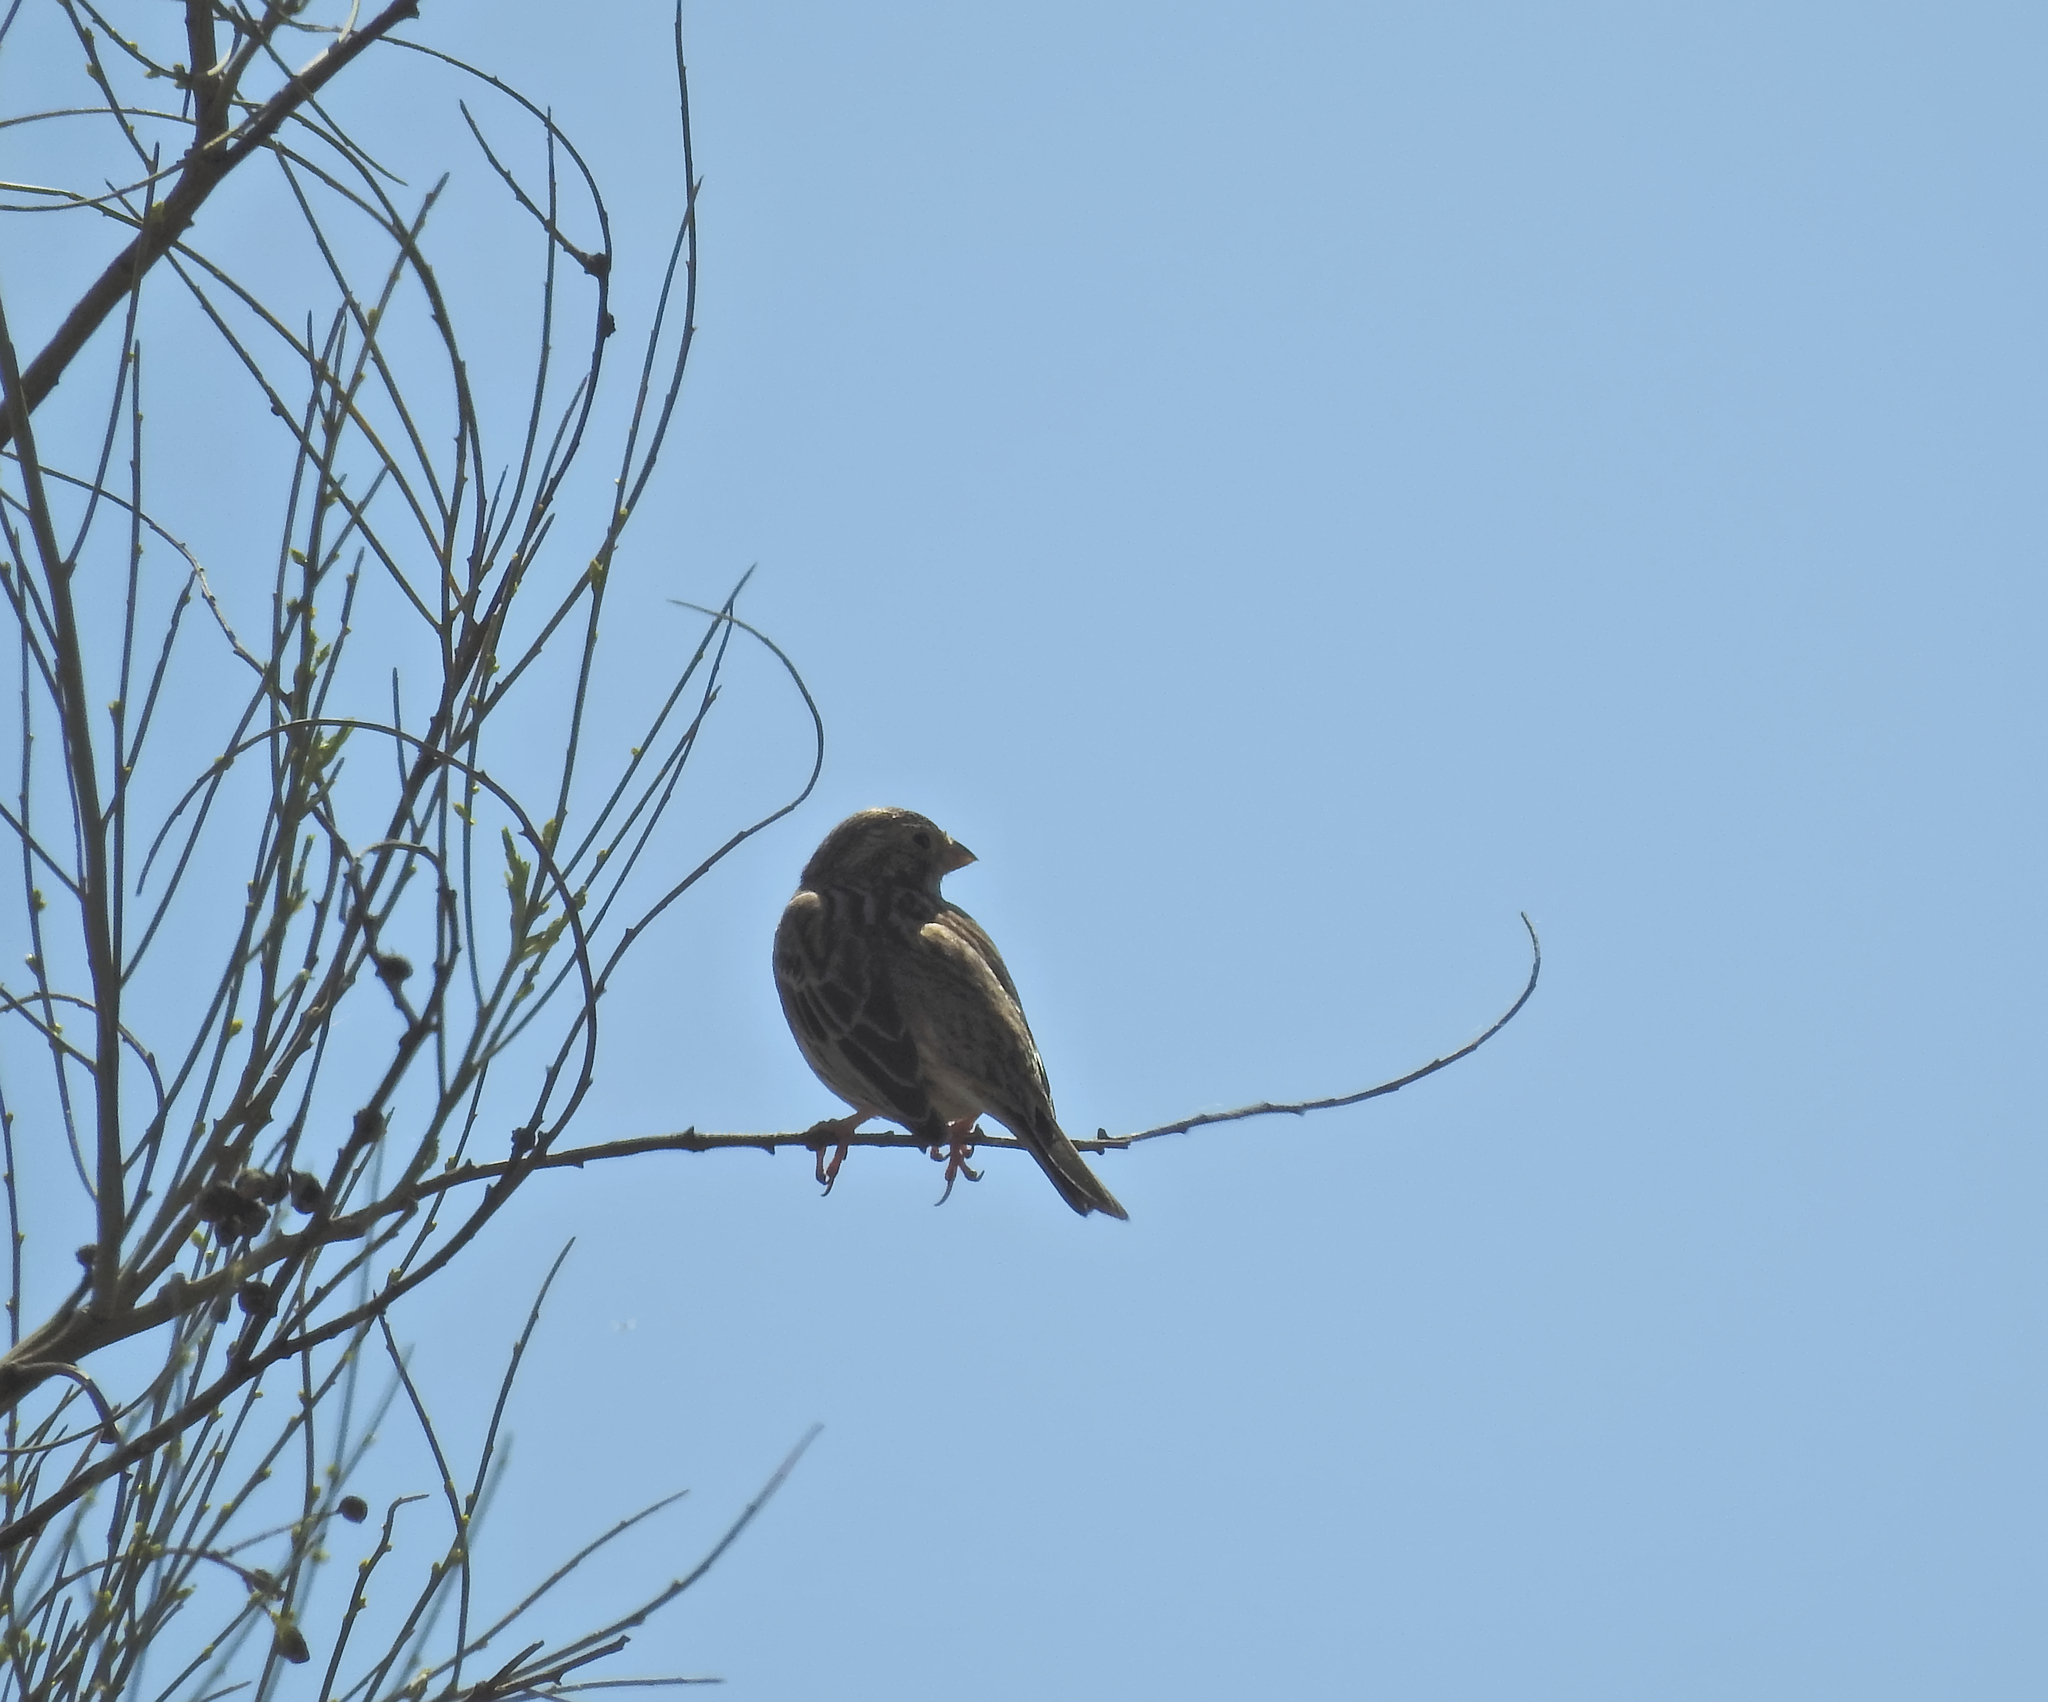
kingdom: Animalia
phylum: Chordata
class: Aves
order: Passeriformes
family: Emberizidae
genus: Emberiza
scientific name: Emberiza calandra
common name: Corn bunting
